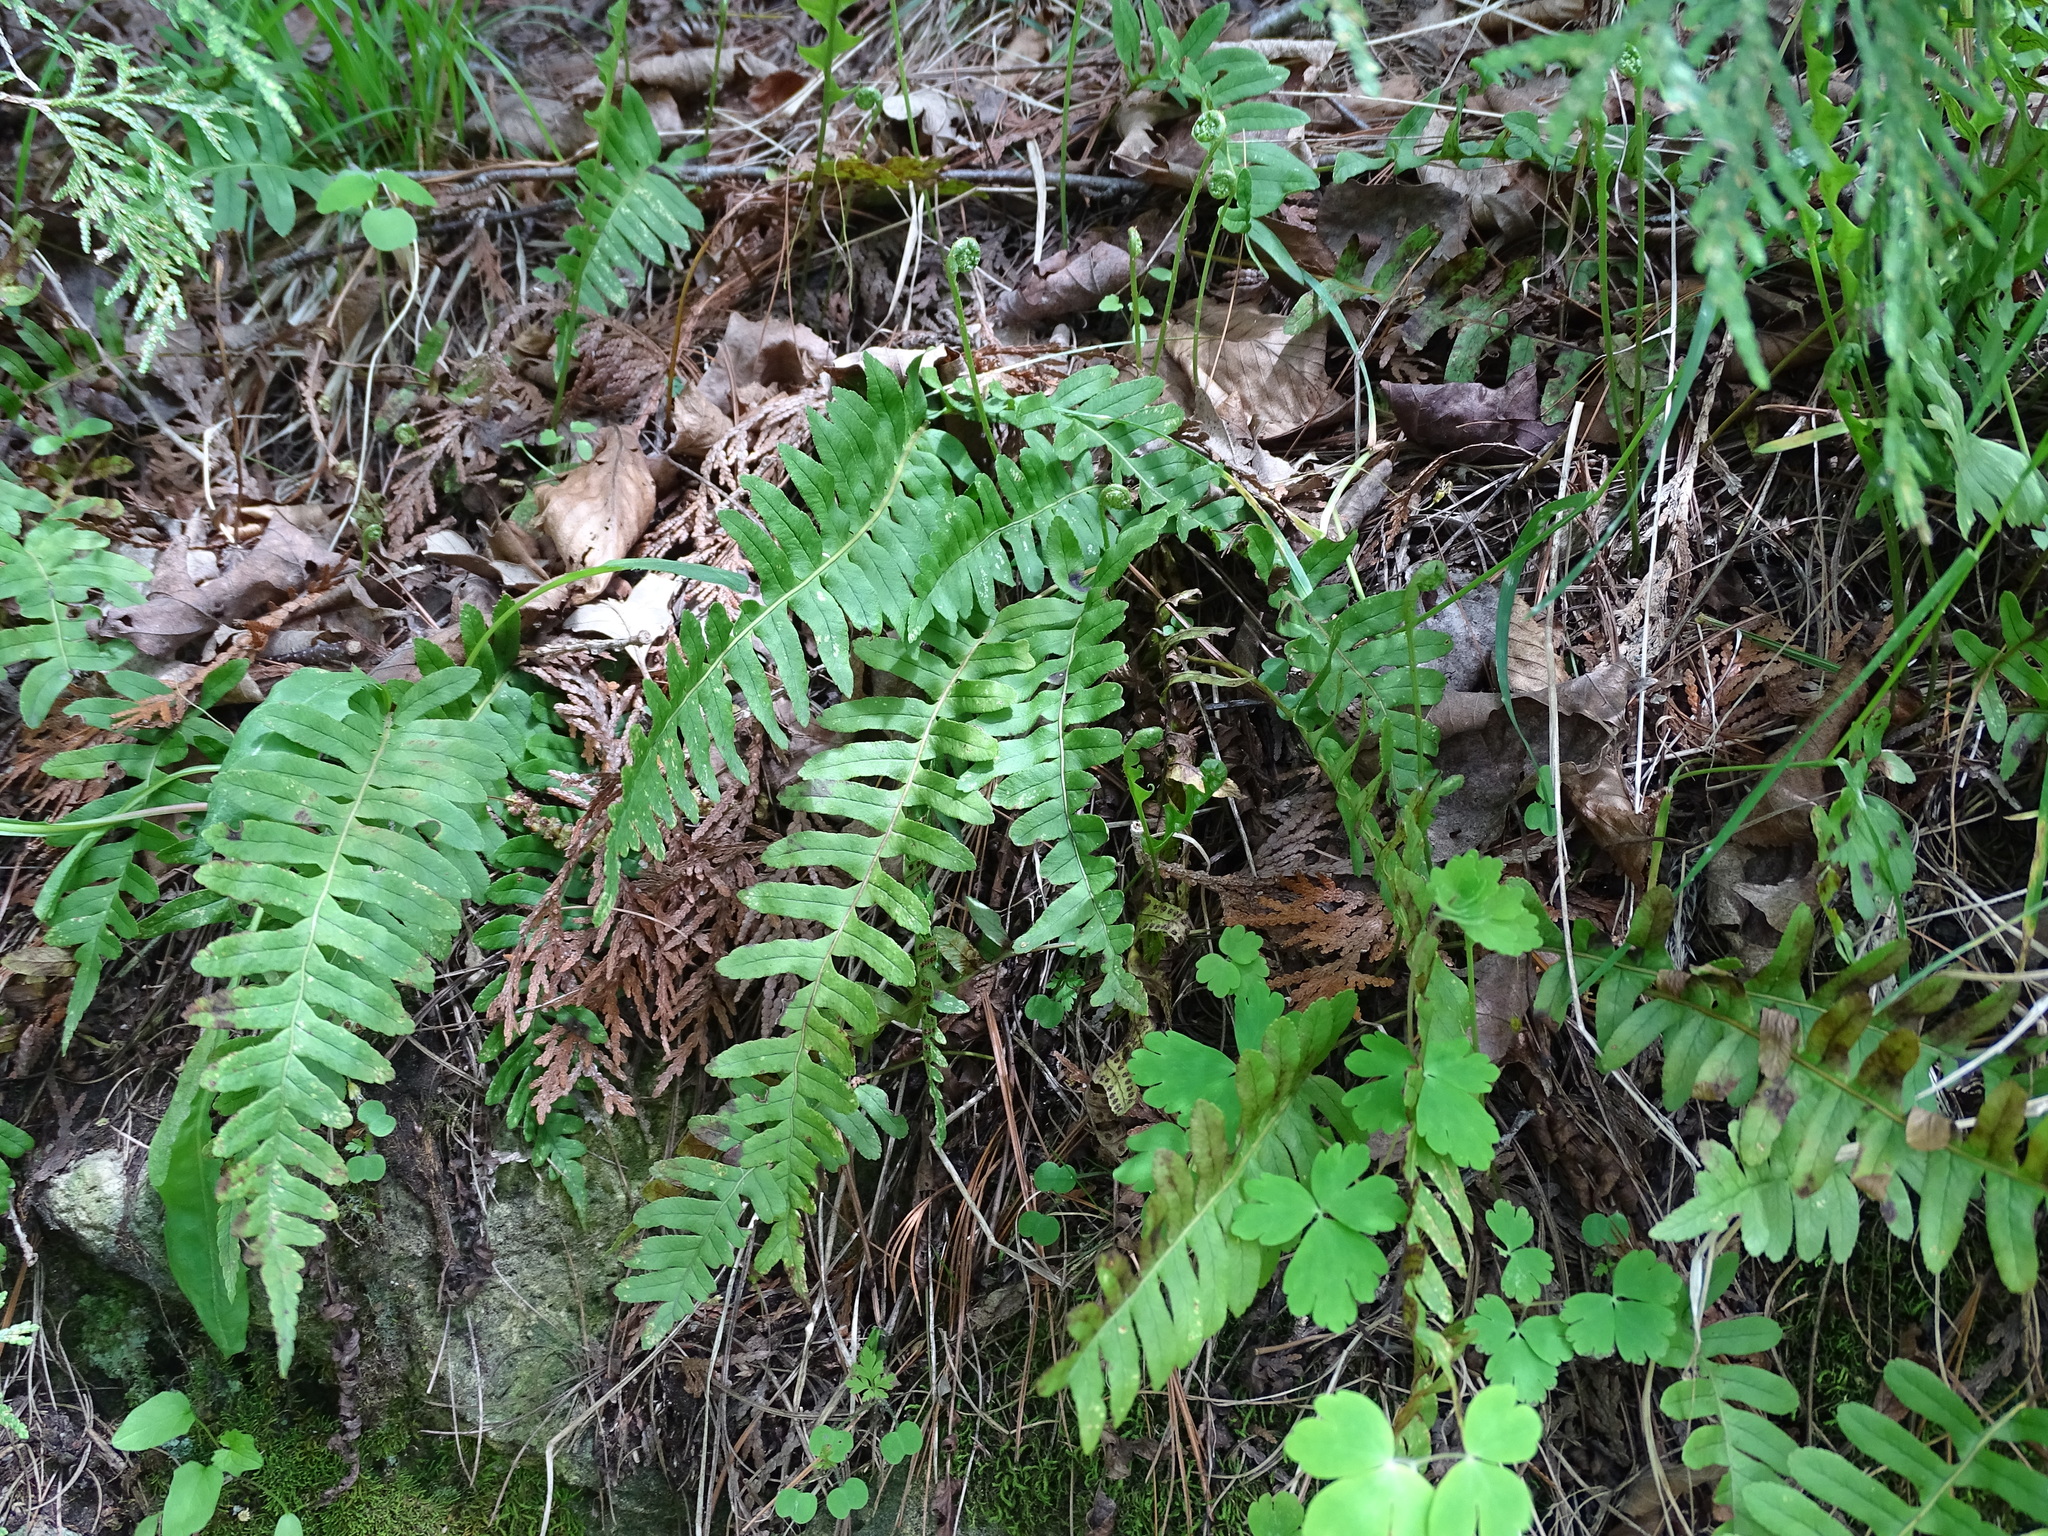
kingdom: Plantae
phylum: Tracheophyta
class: Polypodiopsida
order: Polypodiales
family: Polypodiaceae
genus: Polypodium
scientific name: Polypodium virginianum
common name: American wall fern
